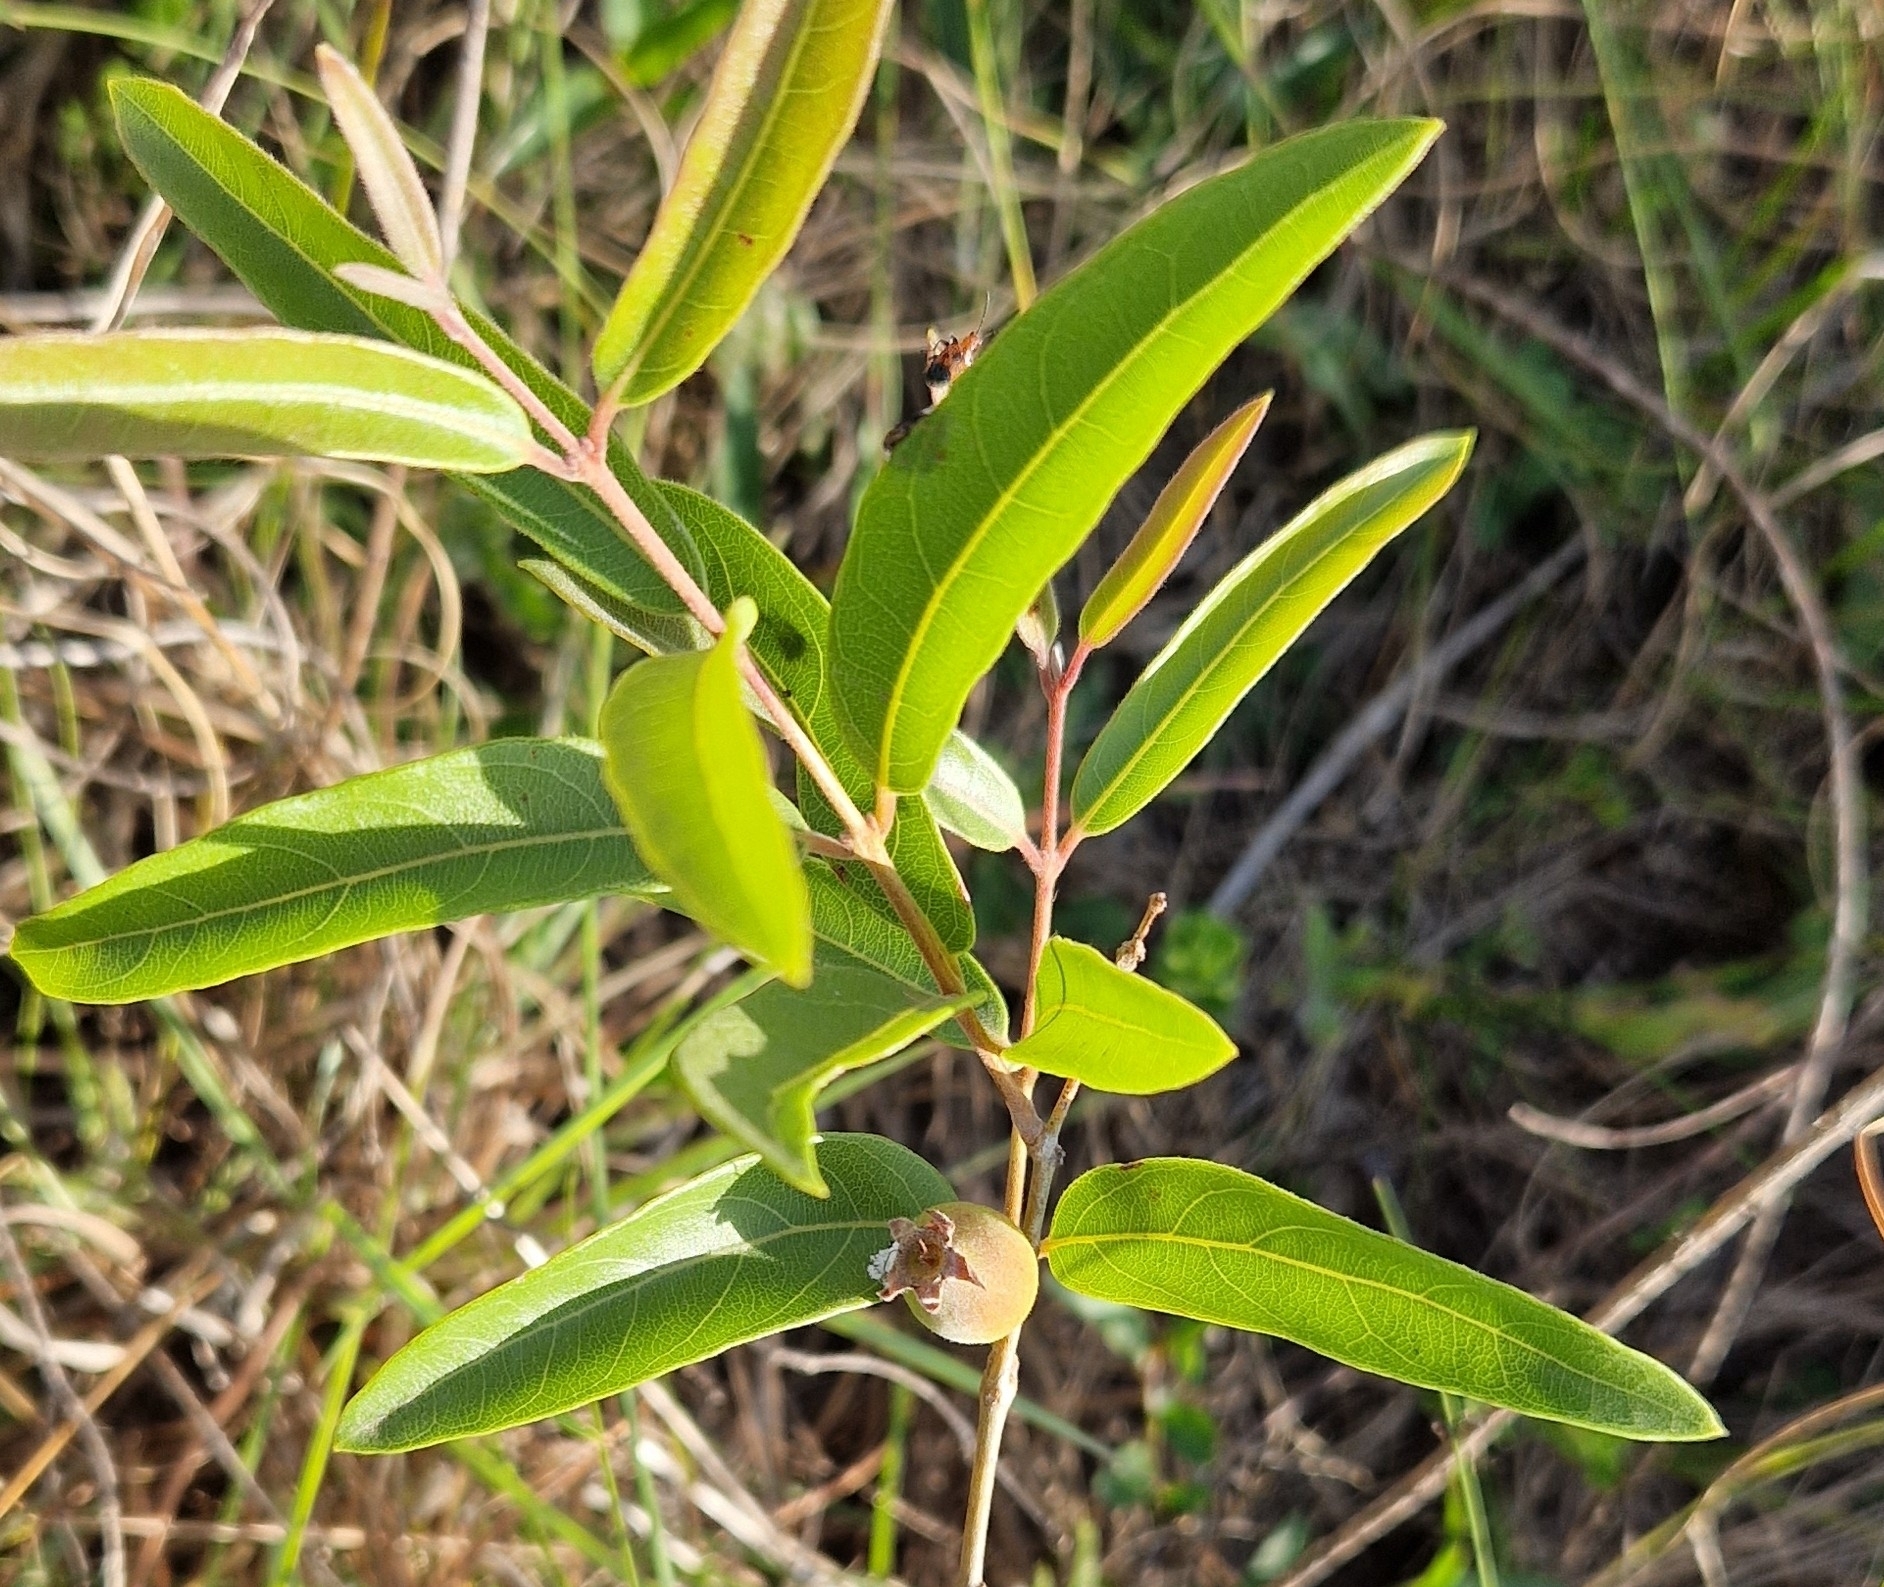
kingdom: Plantae
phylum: Tracheophyta
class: Magnoliopsida
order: Myrtales
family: Myrtaceae
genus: Psidium
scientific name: Psidium salutare
